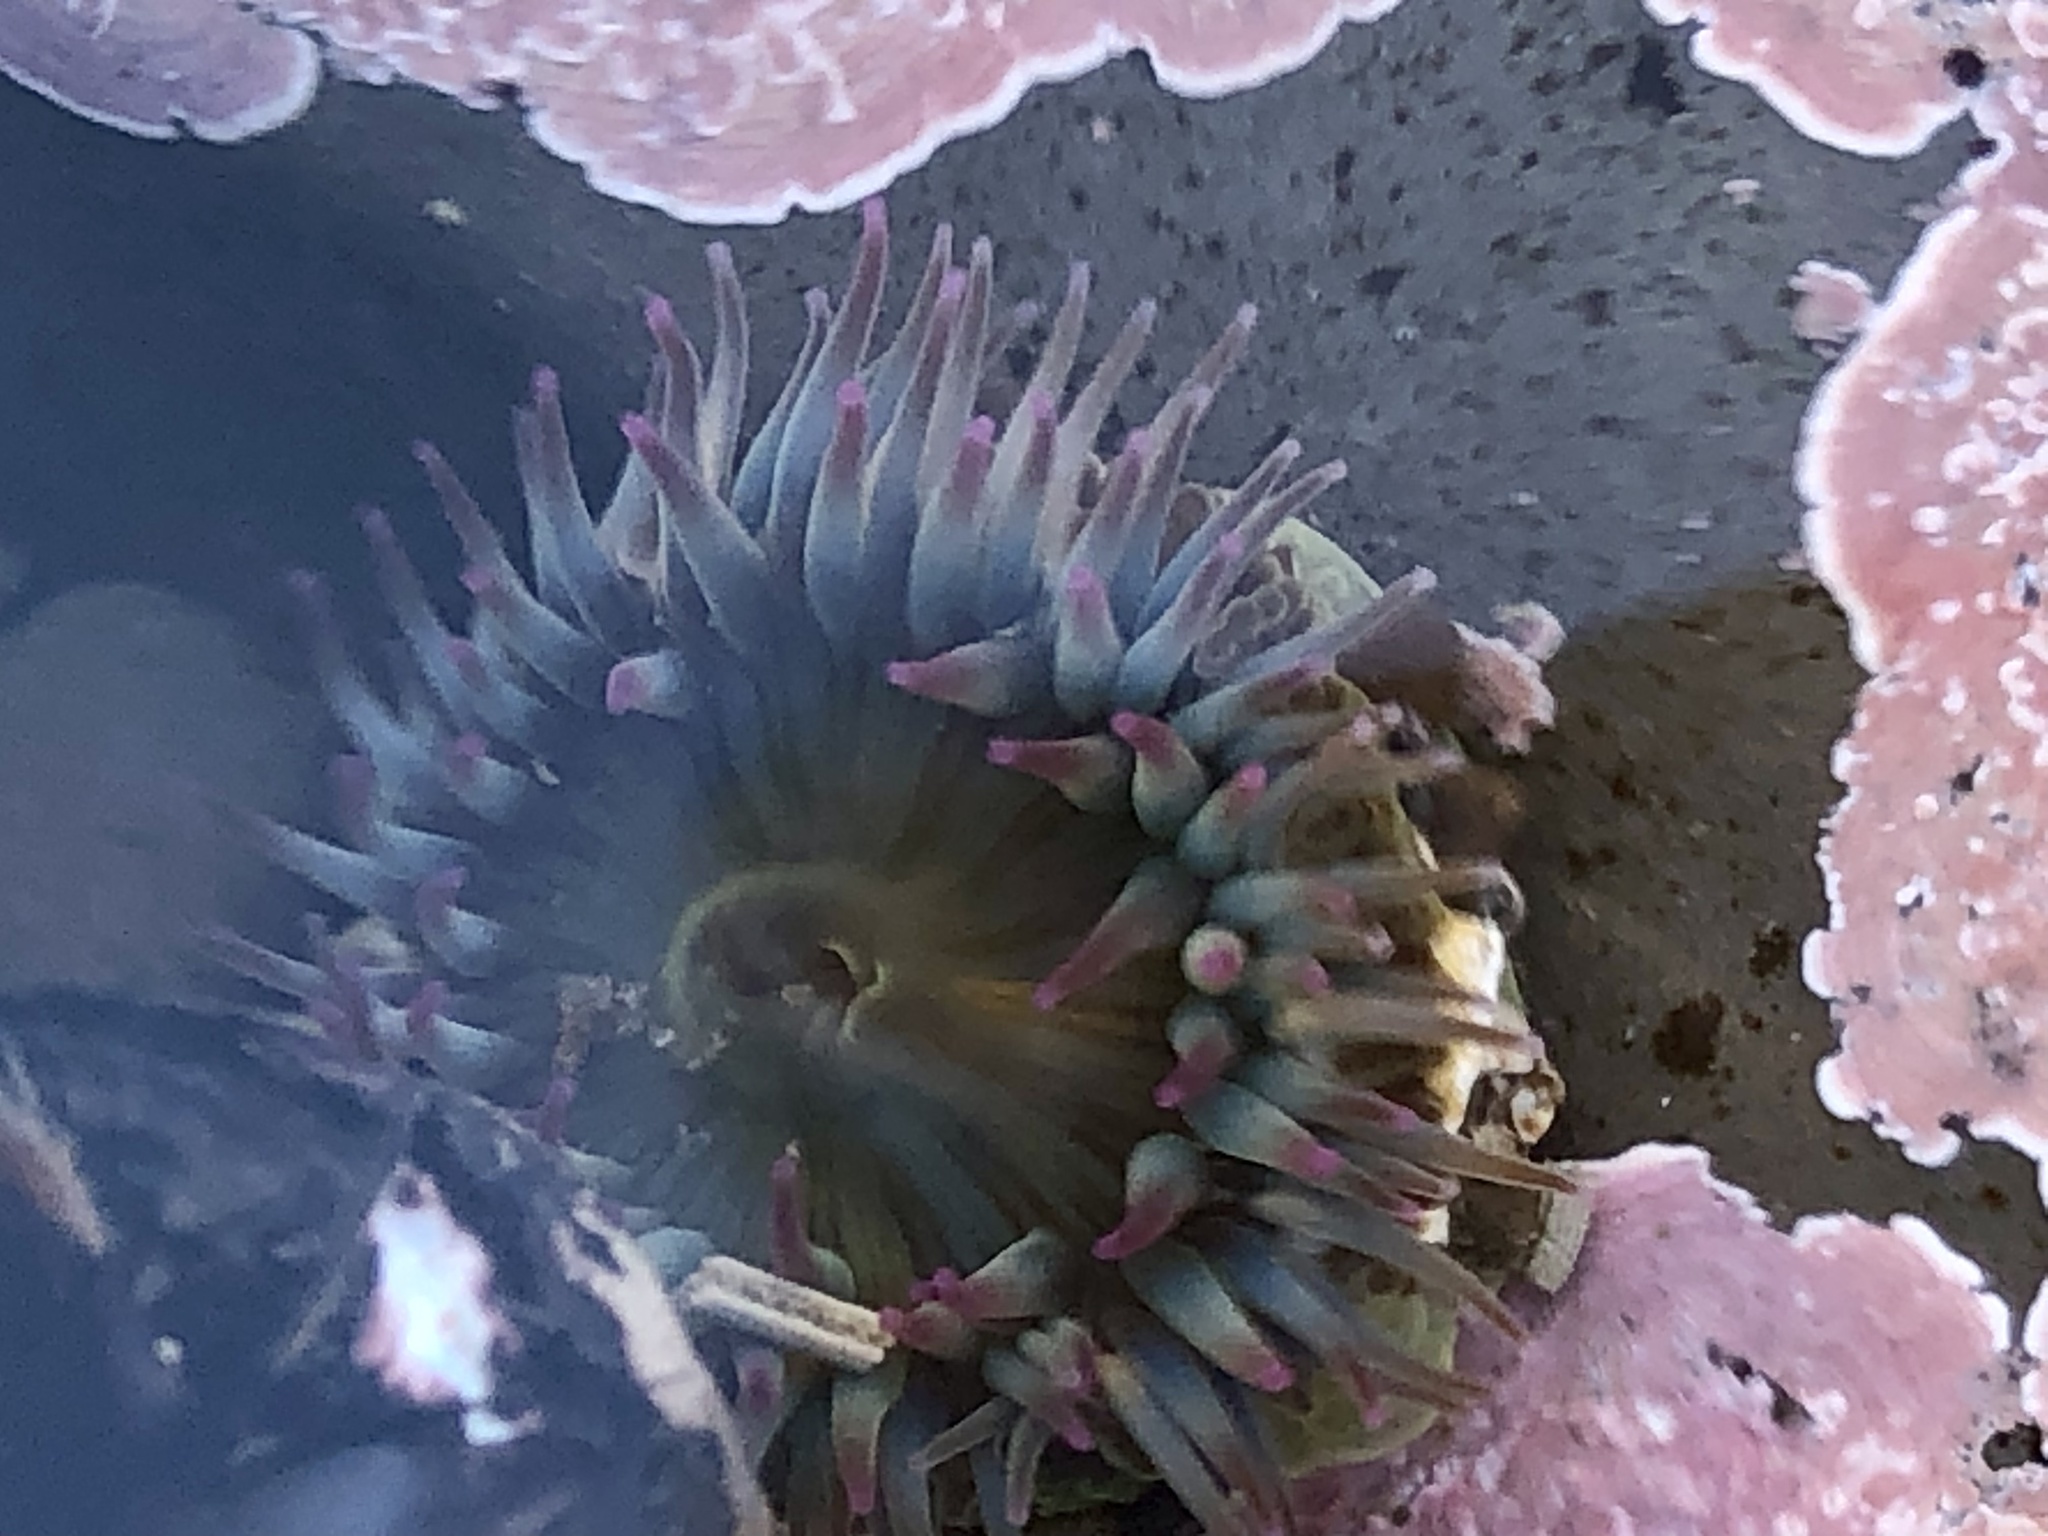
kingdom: Animalia
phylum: Cnidaria
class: Anthozoa
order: Actiniaria
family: Actiniidae
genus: Anthopleura
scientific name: Anthopleura elegantissima
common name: Clonal anemone
